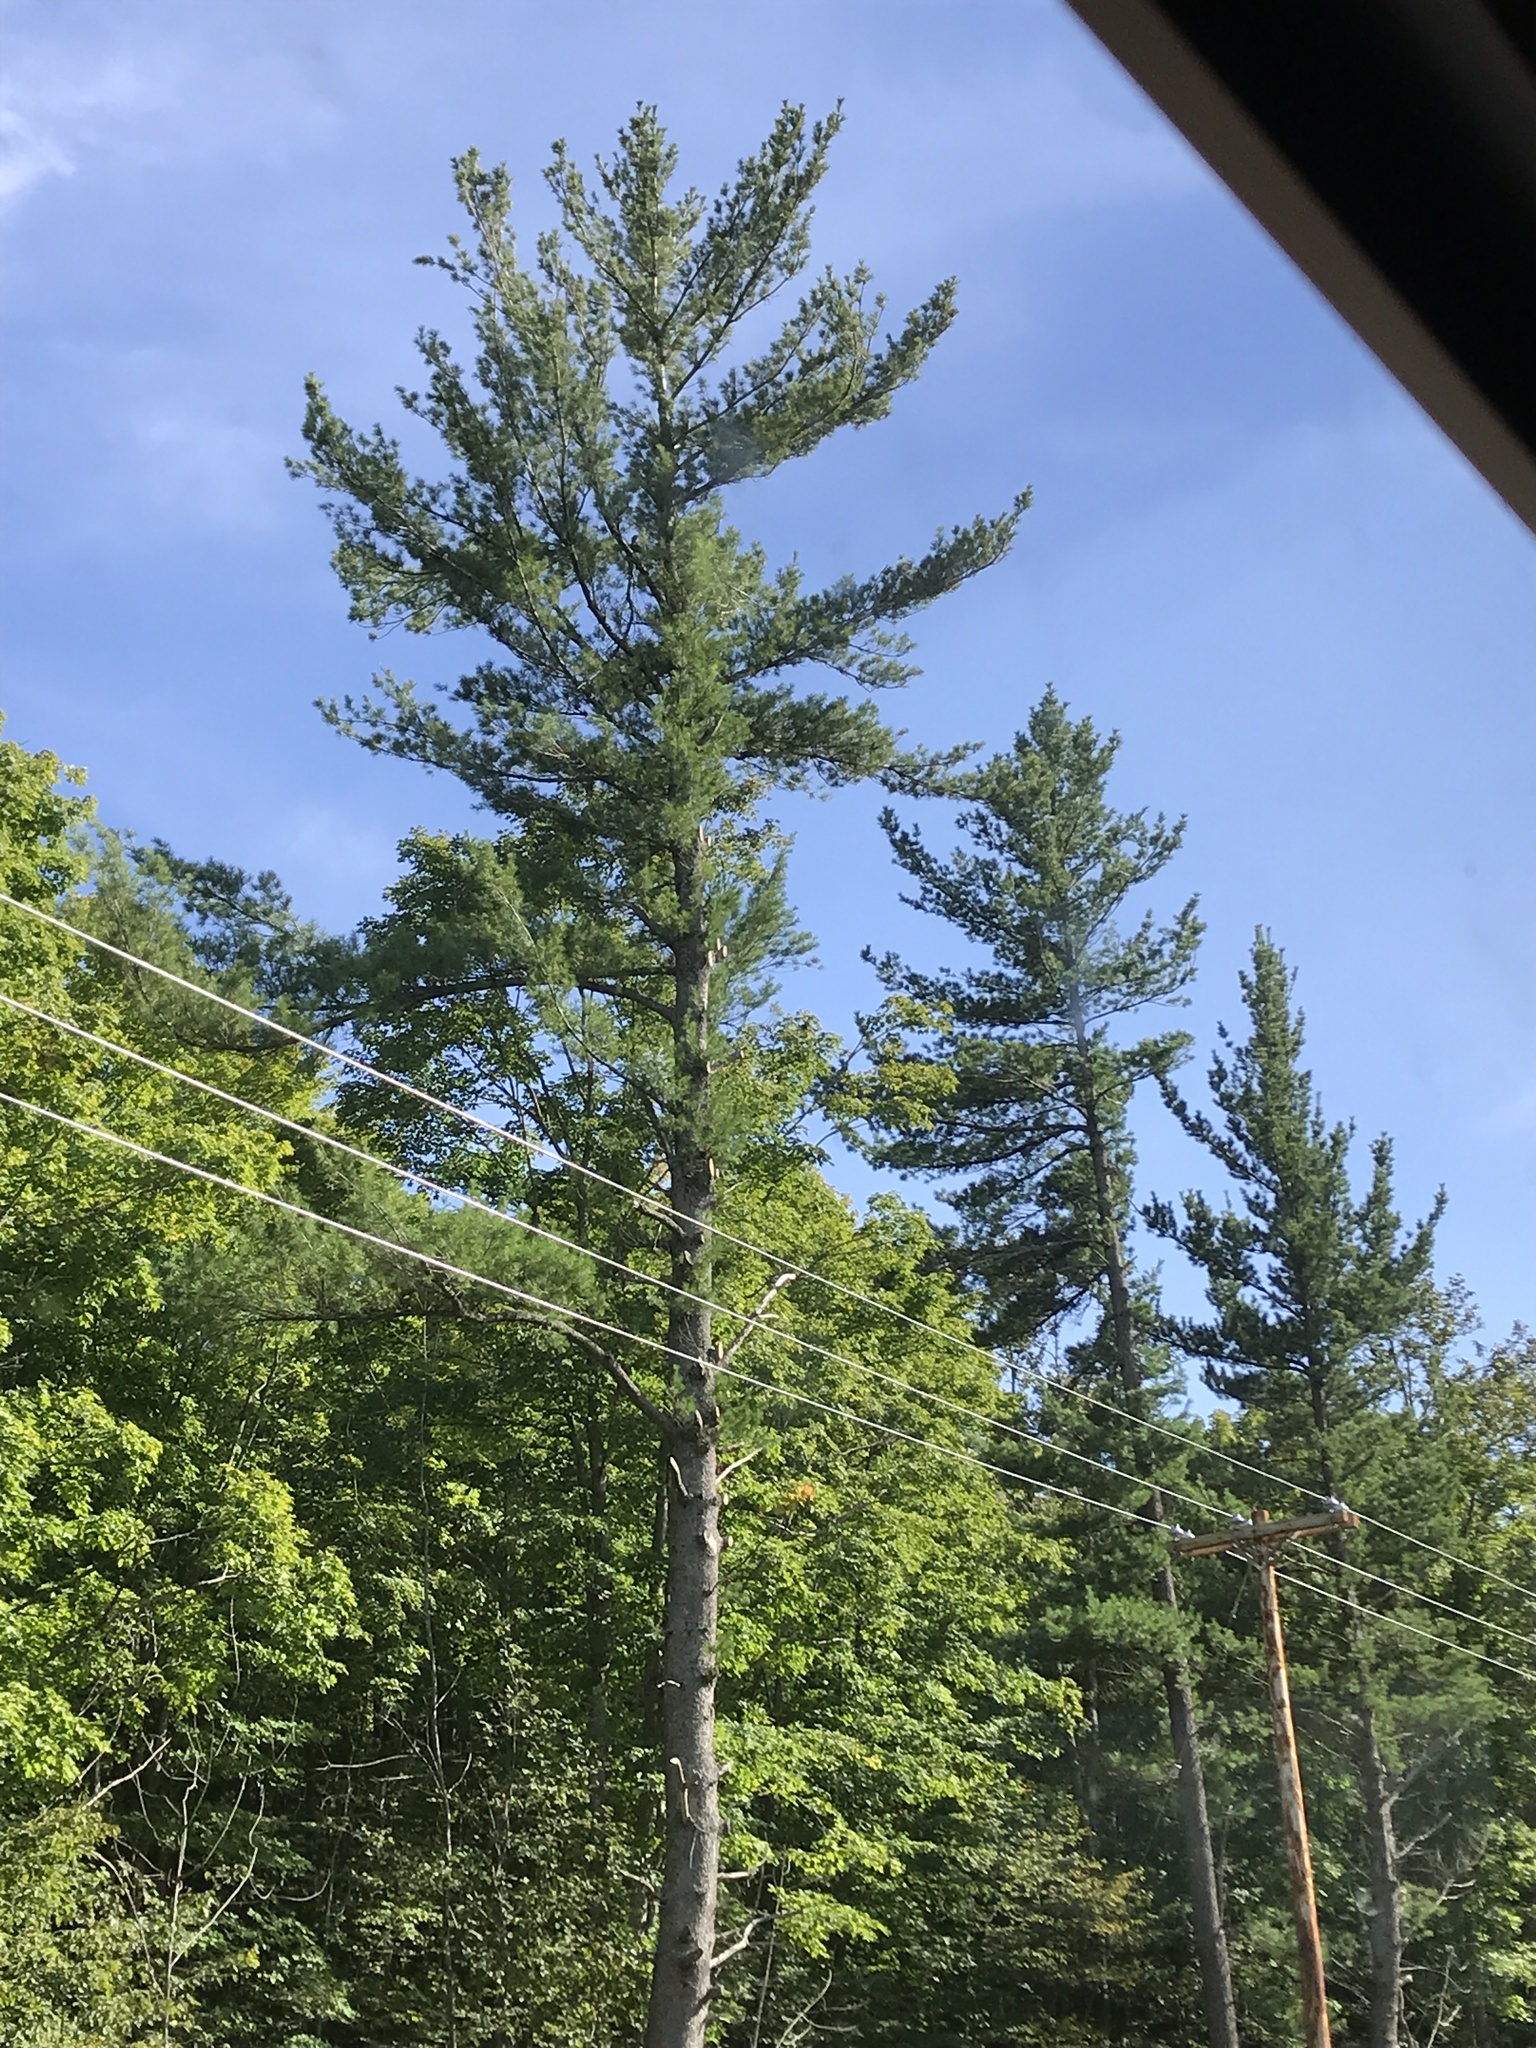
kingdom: Plantae
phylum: Tracheophyta
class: Pinopsida
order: Pinales
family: Pinaceae
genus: Pinus
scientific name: Pinus strobus
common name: Weymouth pine
